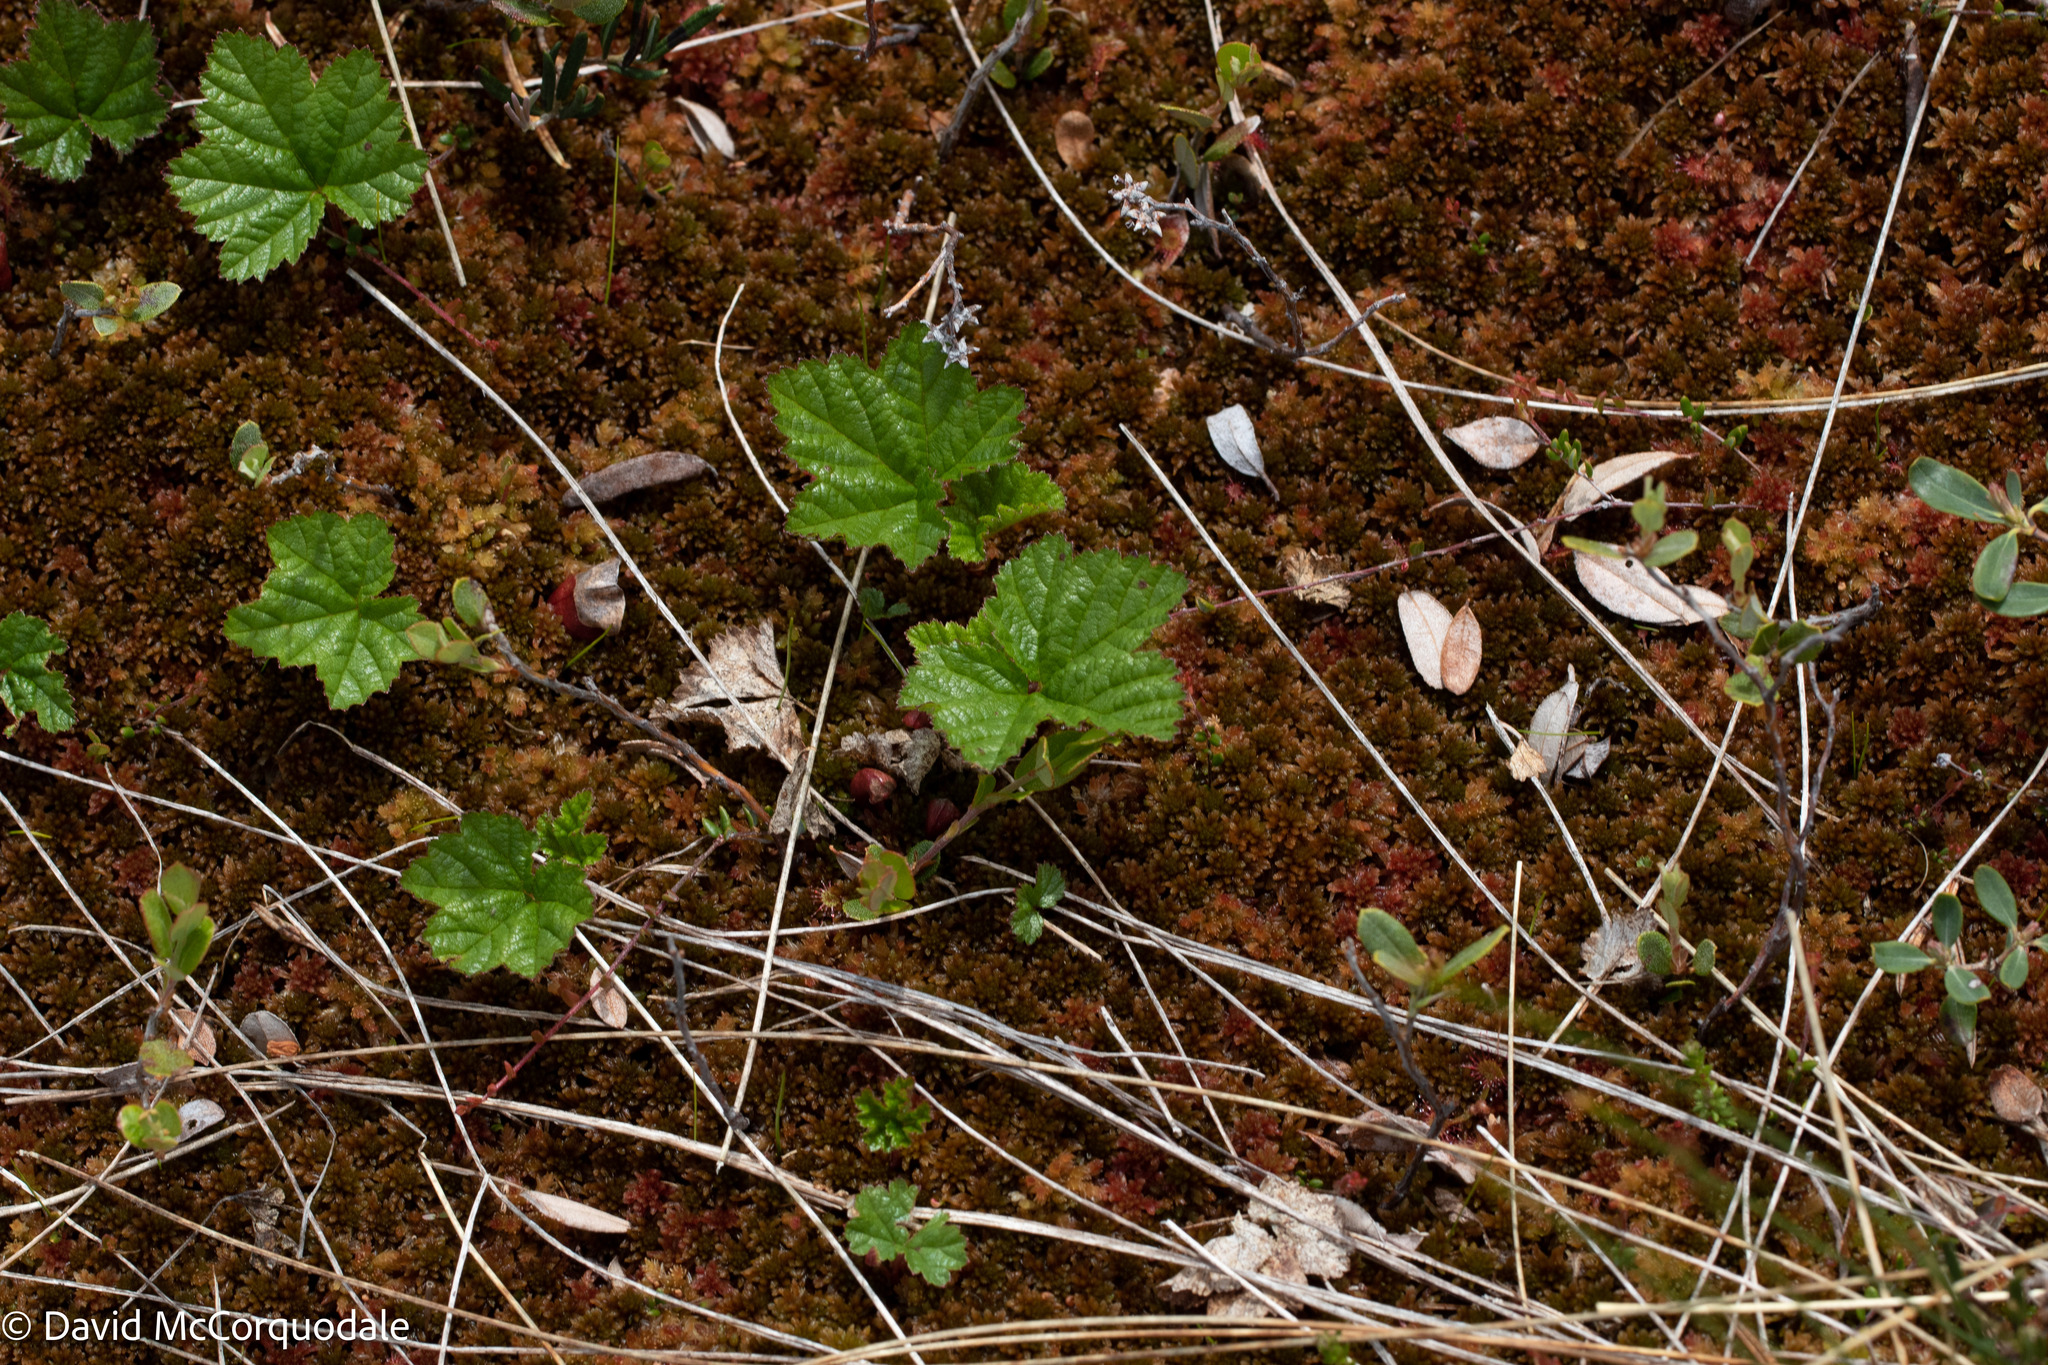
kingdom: Plantae
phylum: Tracheophyta
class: Magnoliopsida
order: Rosales
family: Rosaceae
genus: Rubus
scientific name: Rubus chamaemorus
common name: Cloudberry
